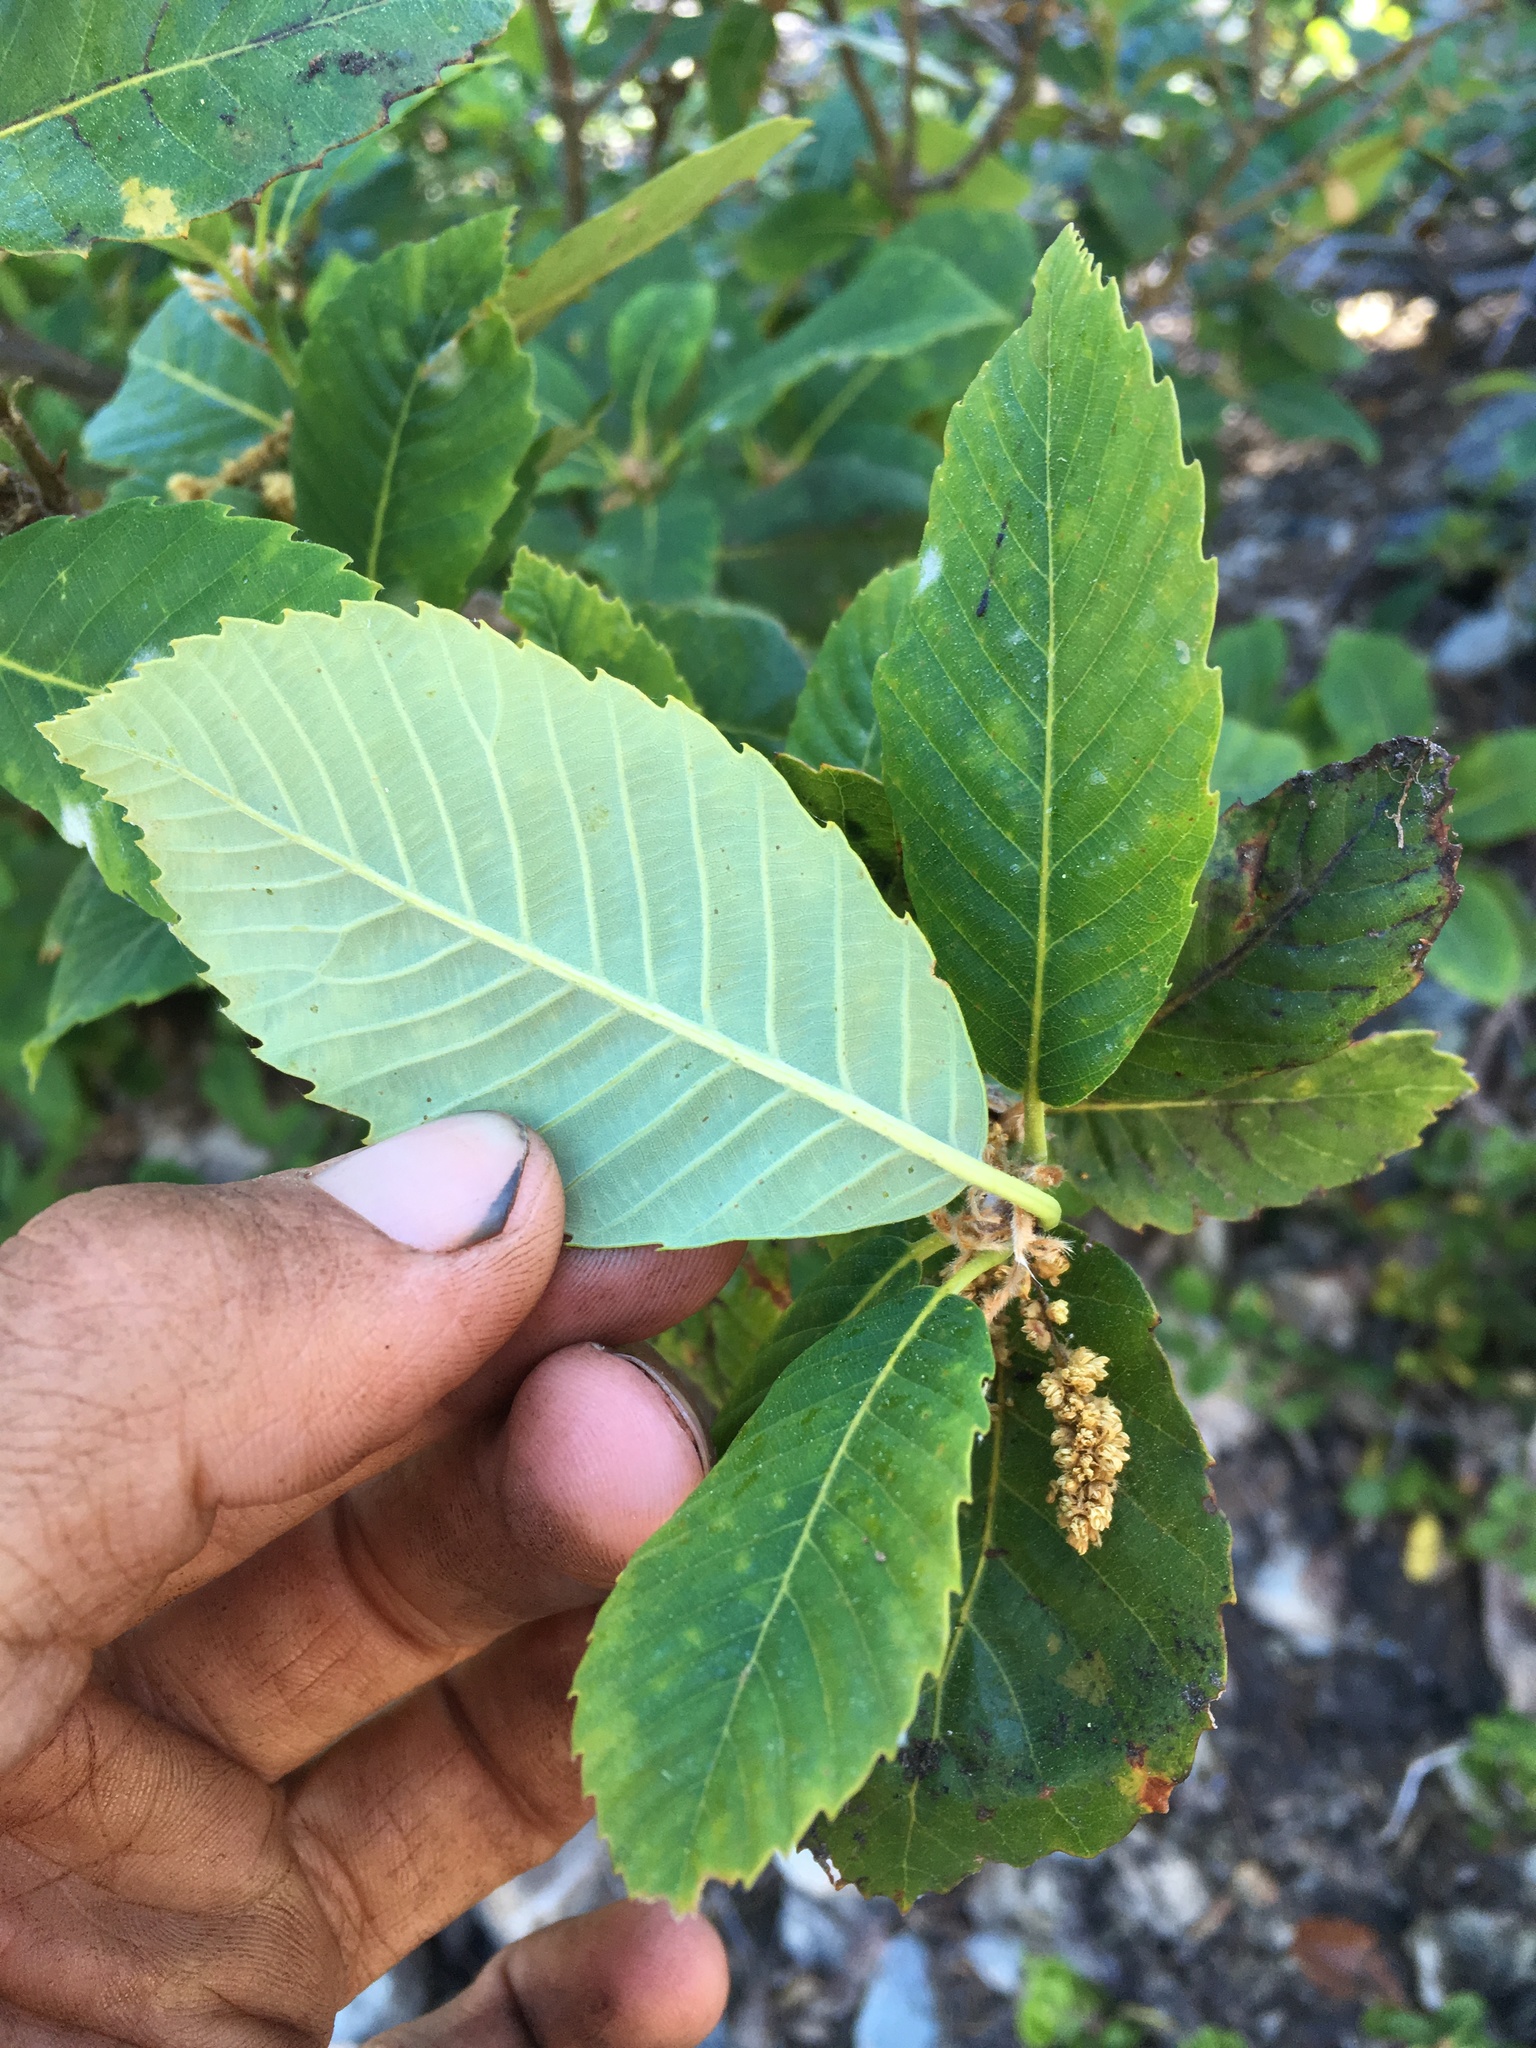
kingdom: Plantae
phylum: Tracheophyta
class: Magnoliopsida
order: Fagales
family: Fagaceae
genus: Quercus
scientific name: Quercus sadleriana
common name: Deer oak
